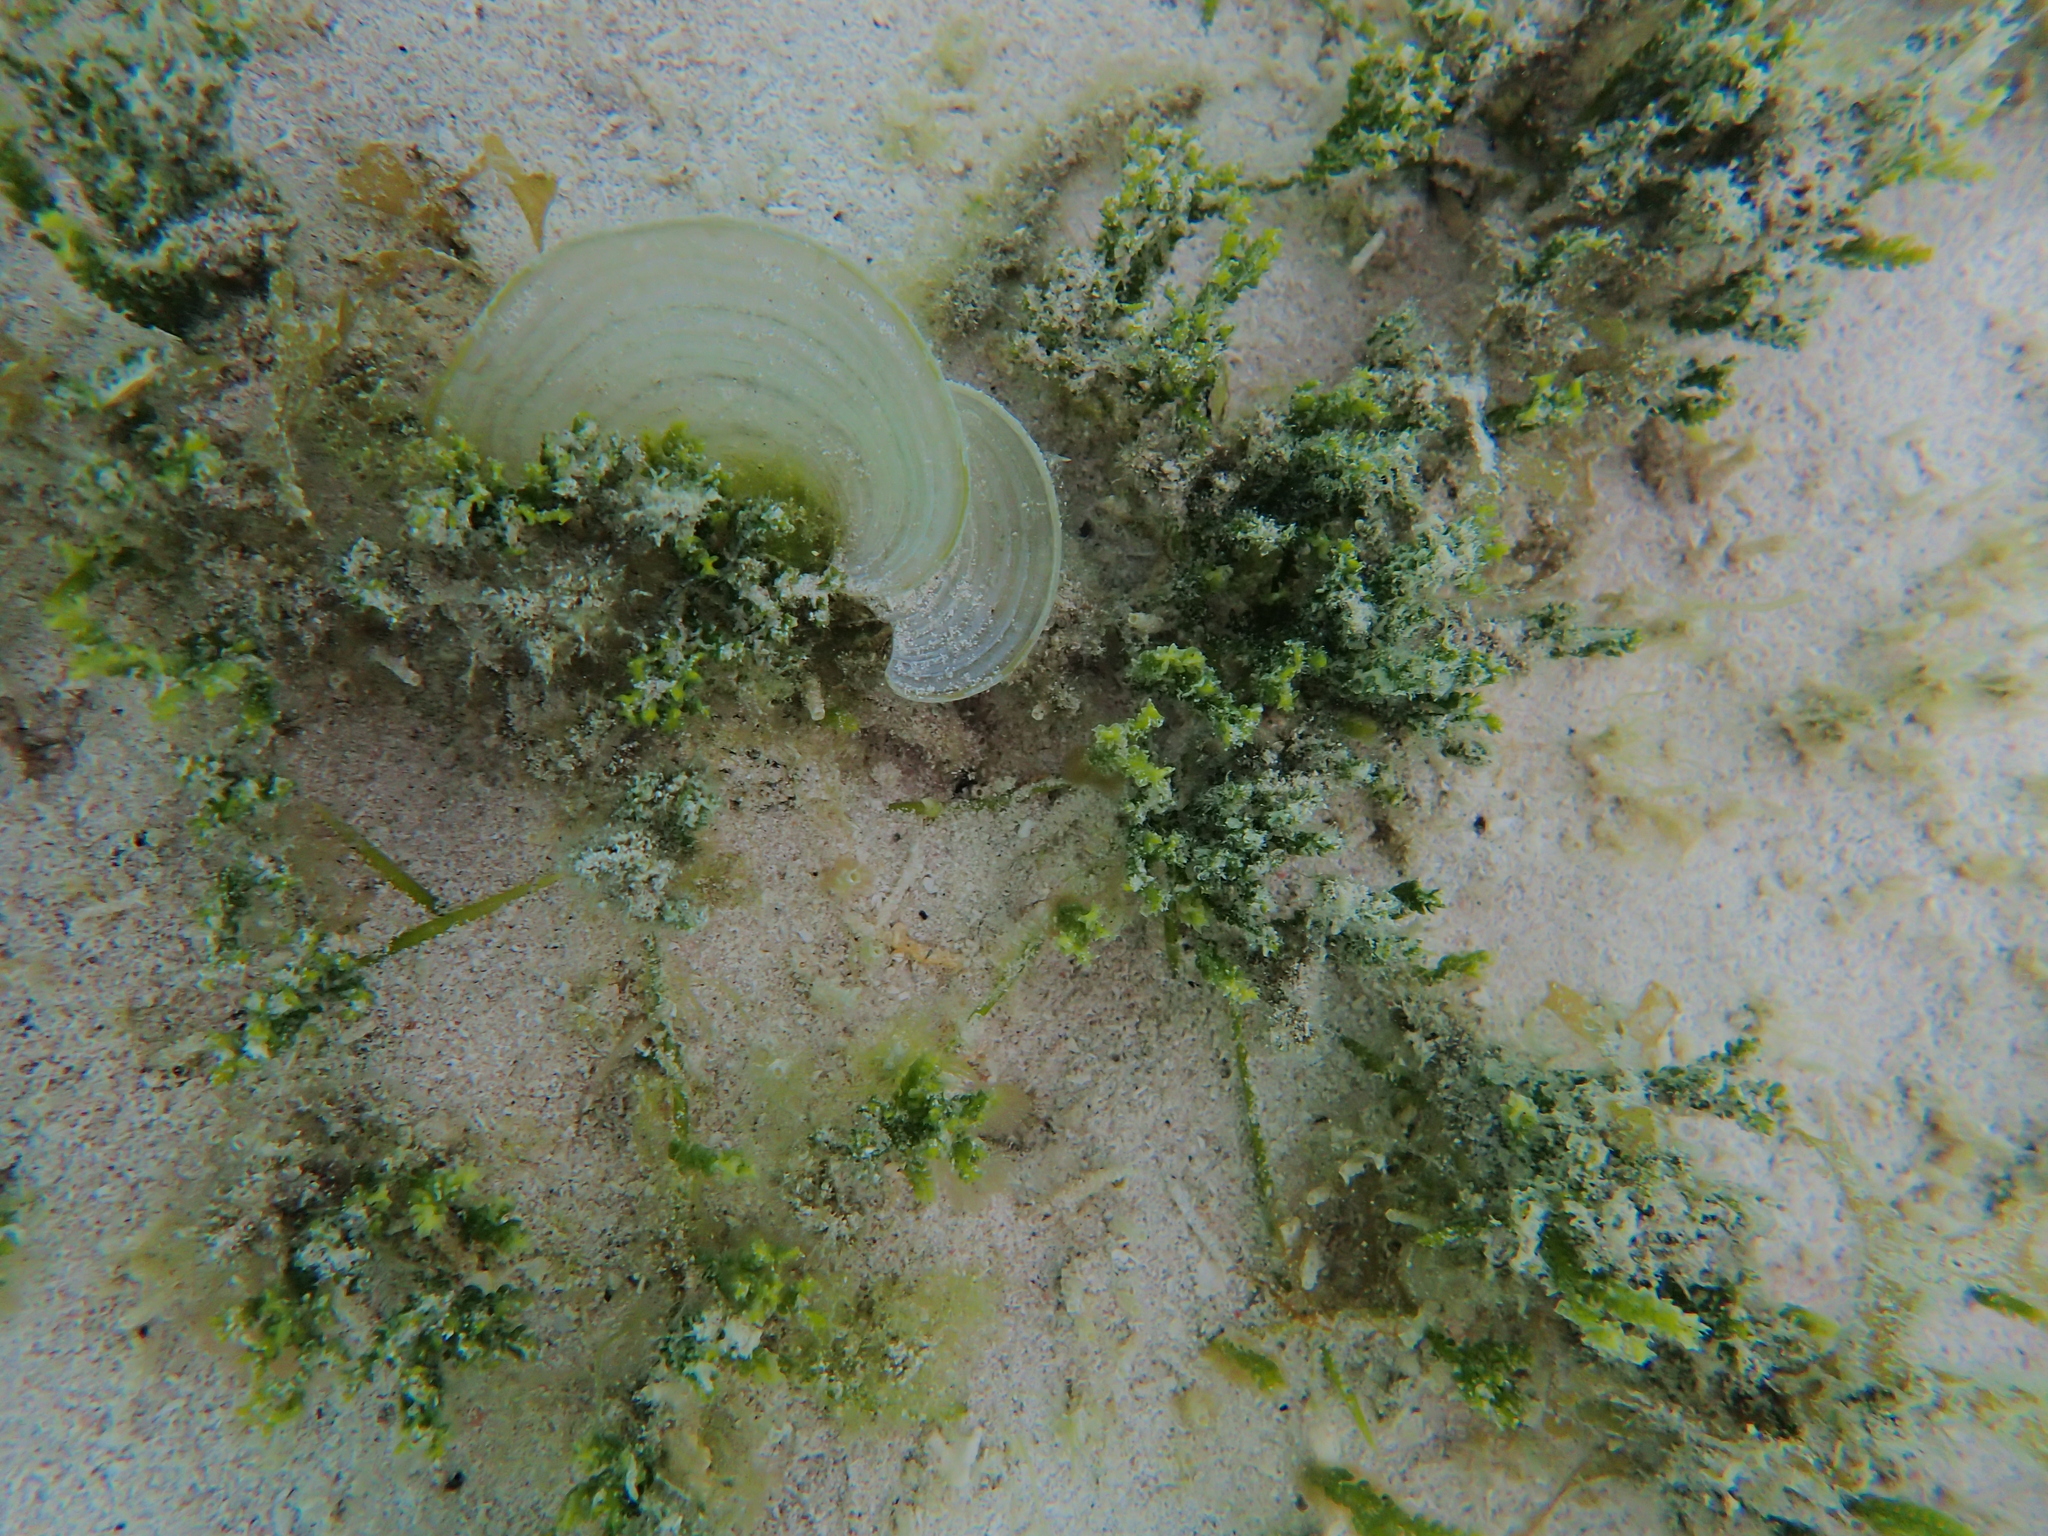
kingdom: Chromista
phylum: Ochrophyta
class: Phaeophyceae
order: Dictyotales
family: Dictyotaceae
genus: Padina
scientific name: Padina boryana
